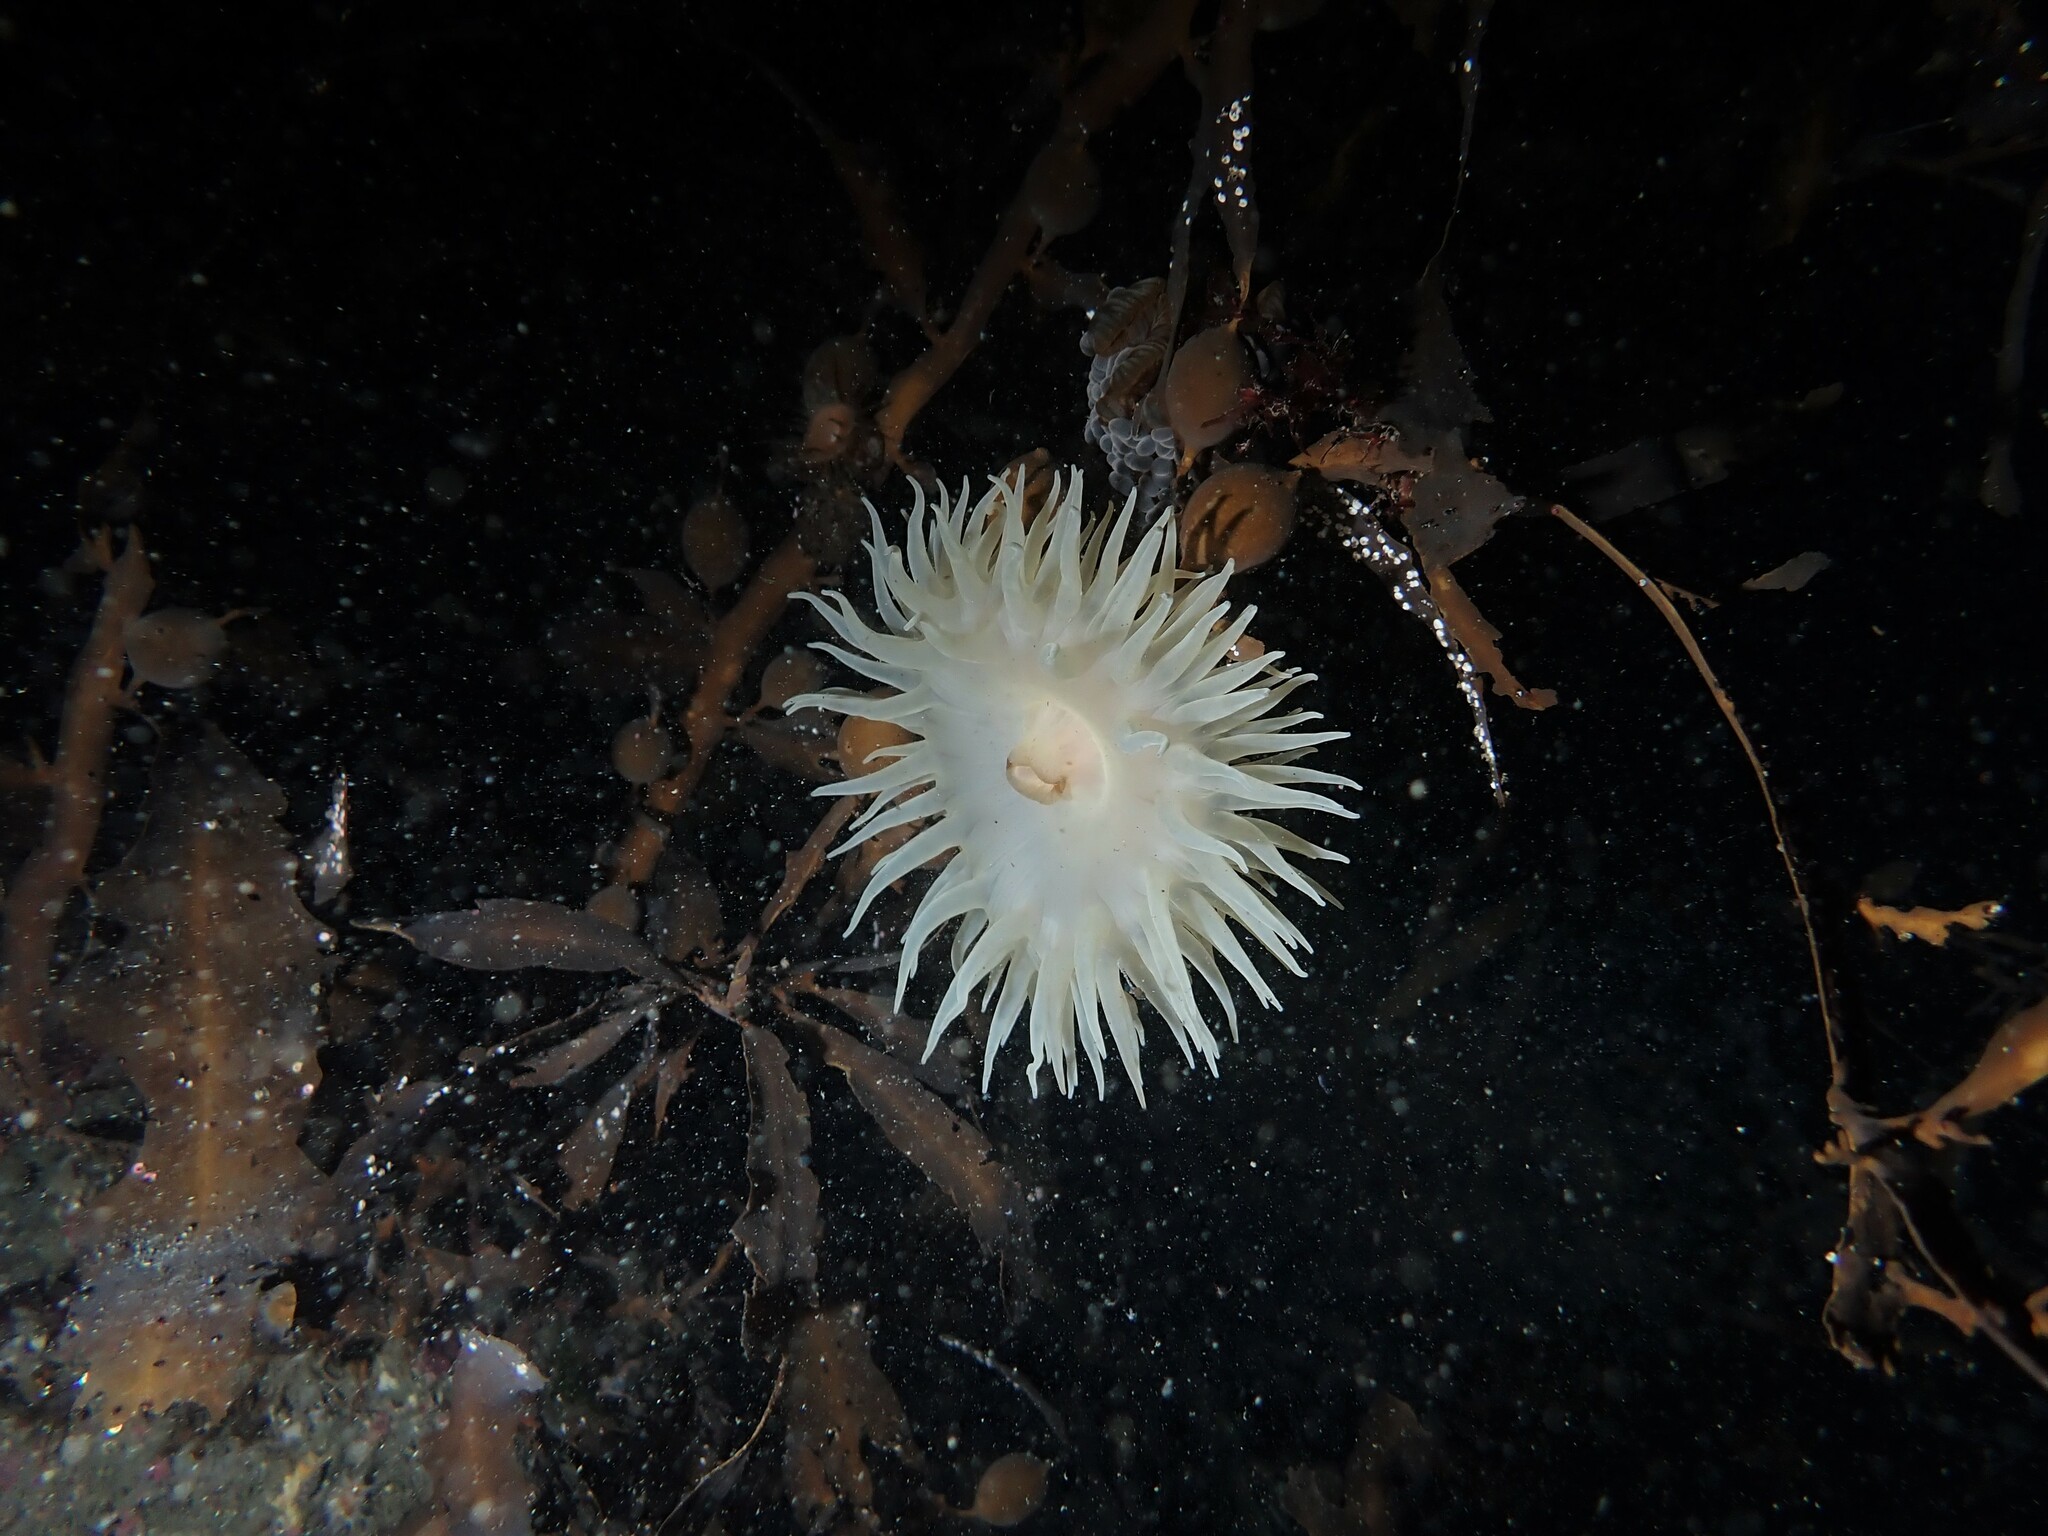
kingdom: Animalia
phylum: Cnidaria
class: Anthozoa
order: Actiniaria
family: Actiniidae
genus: Phlyctenactis
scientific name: Phlyctenactis tuberculosa
